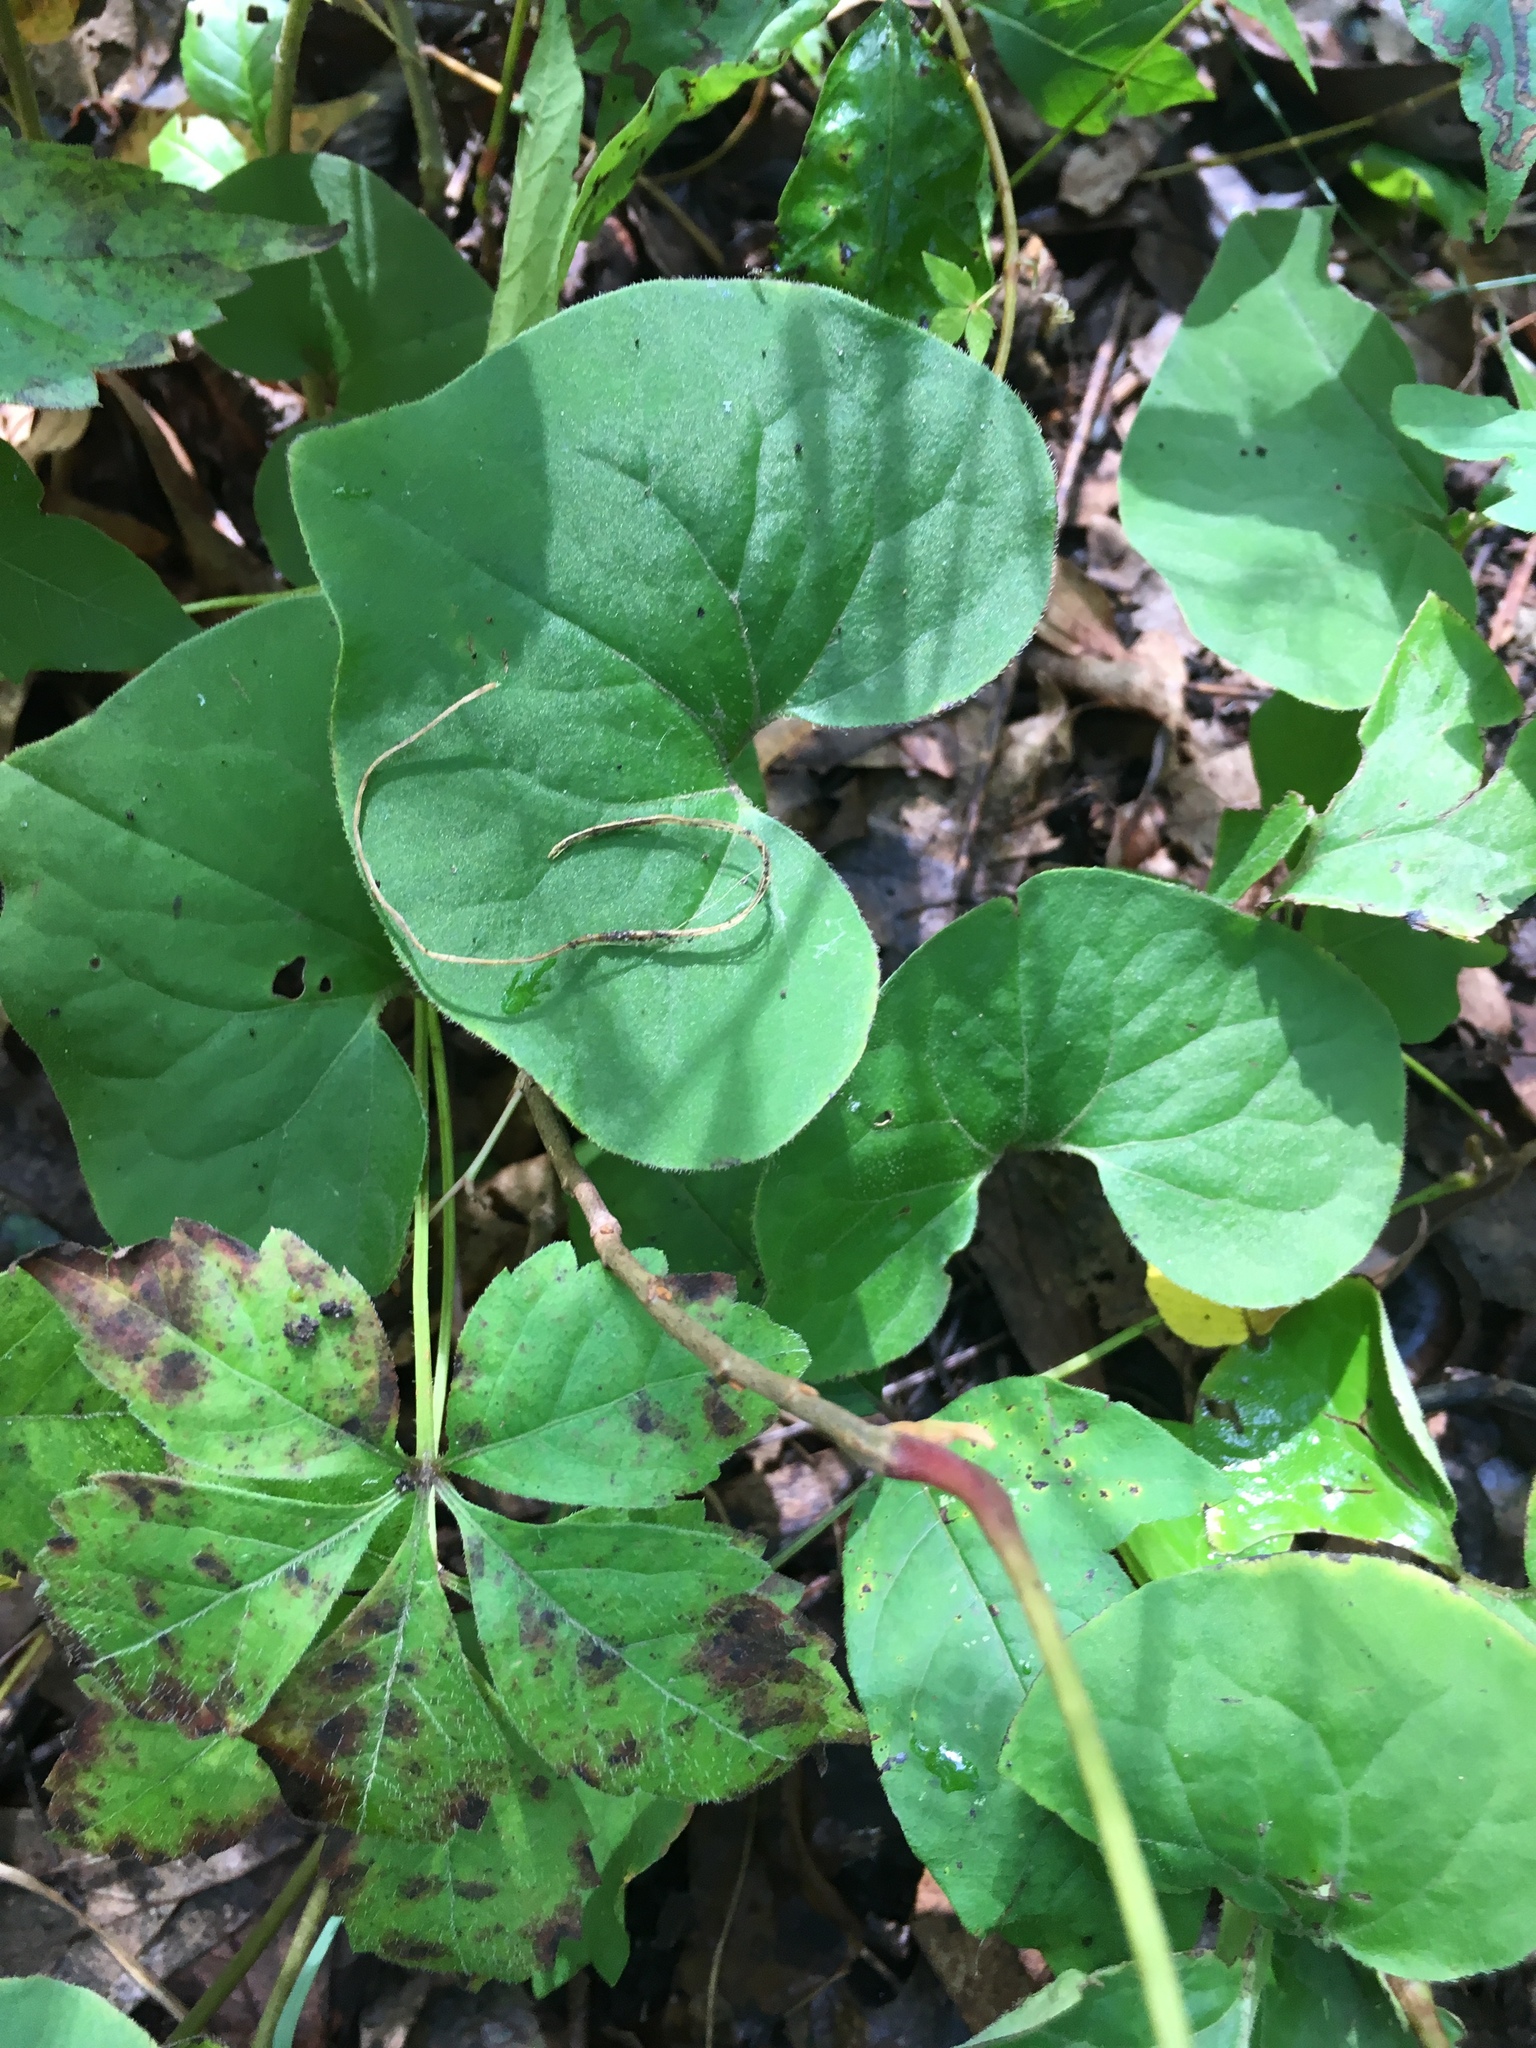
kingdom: Plantae
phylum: Tracheophyta
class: Magnoliopsida
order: Piperales
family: Aristolochiaceae
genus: Asarum
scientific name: Asarum canadense
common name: Wild ginger
